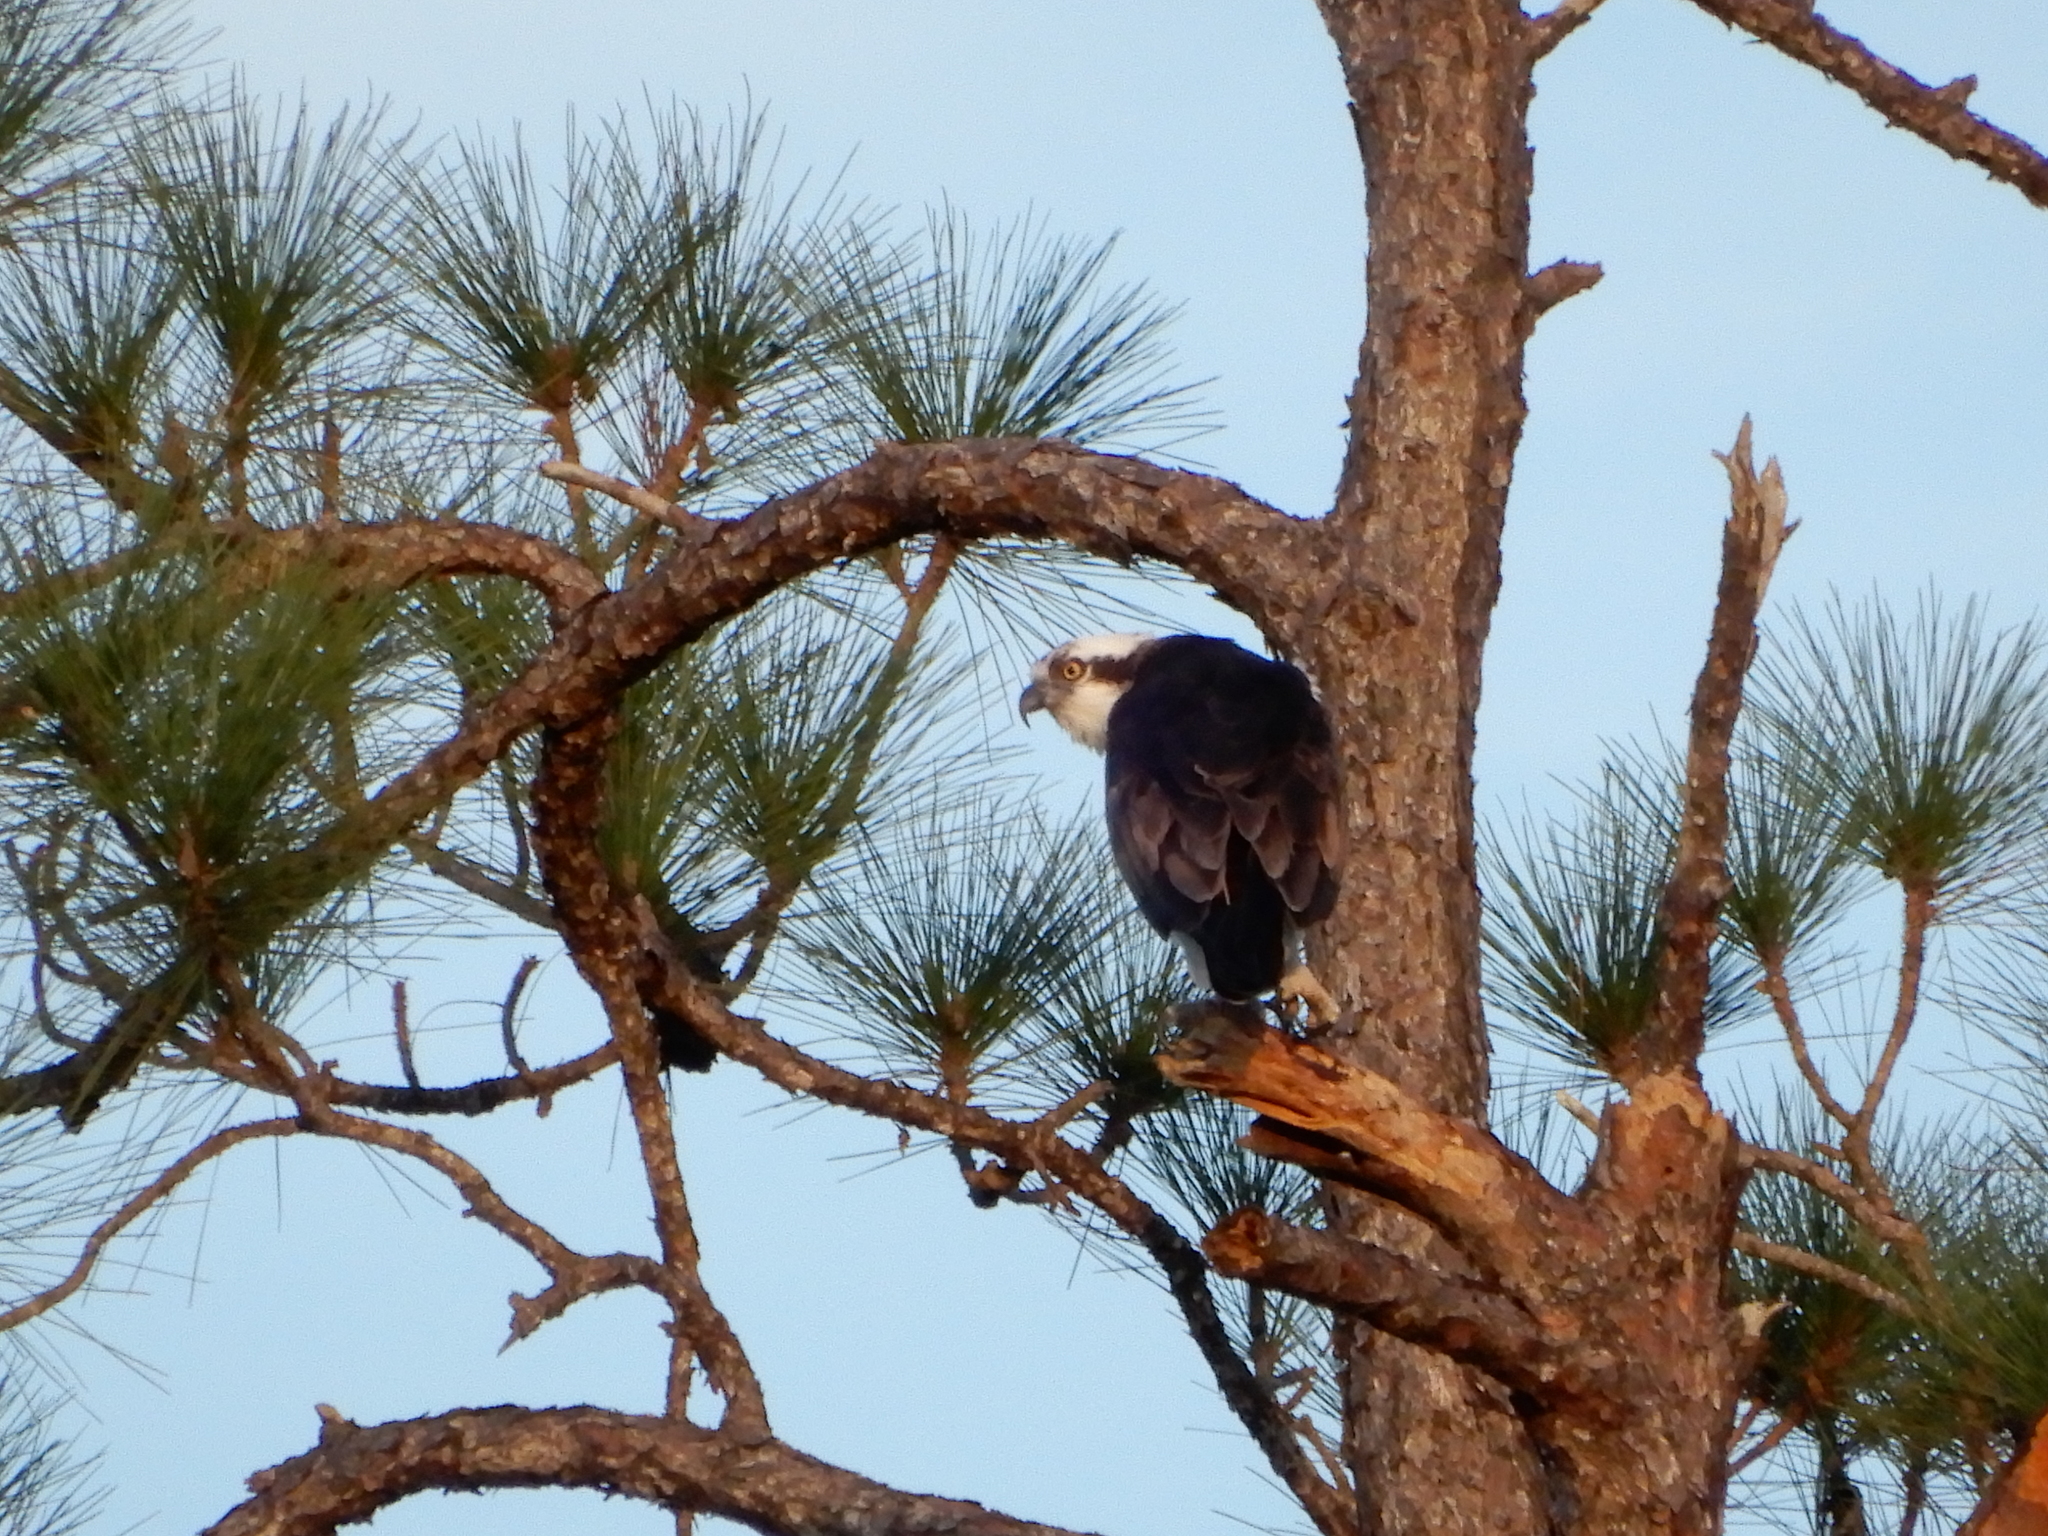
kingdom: Animalia
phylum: Chordata
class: Aves
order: Accipitriformes
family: Pandionidae
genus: Pandion
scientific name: Pandion haliaetus
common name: Osprey
